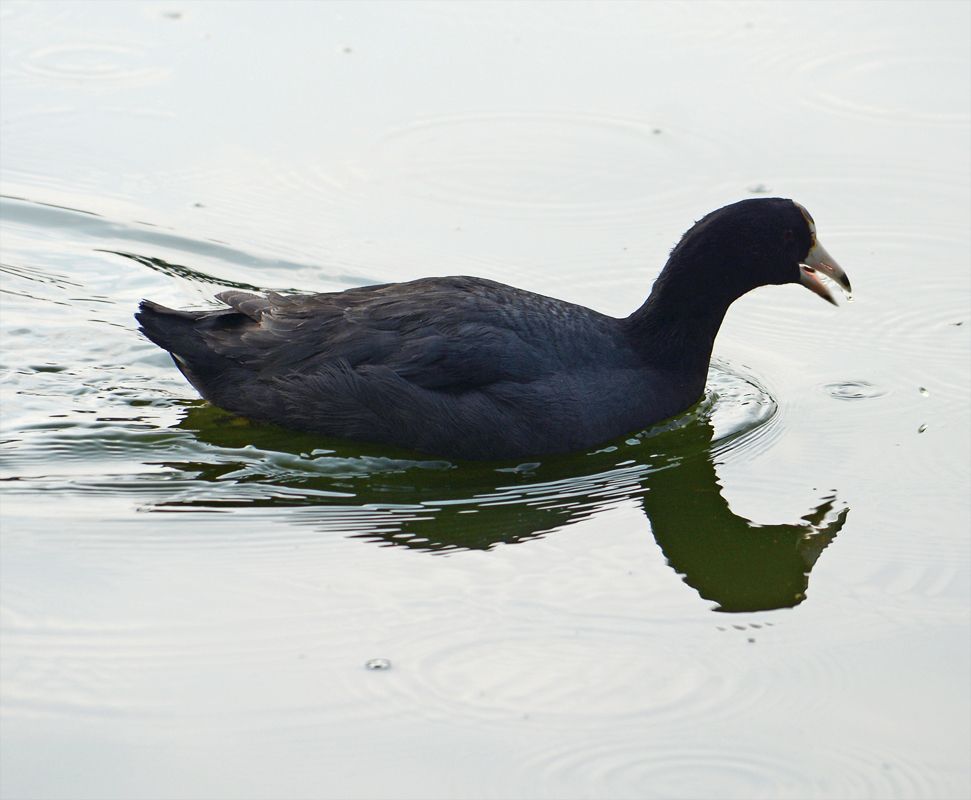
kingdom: Animalia
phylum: Chordata
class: Aves
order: Gruiformes
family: Rallidae
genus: Fulica
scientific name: Fulica americana
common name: American coot
